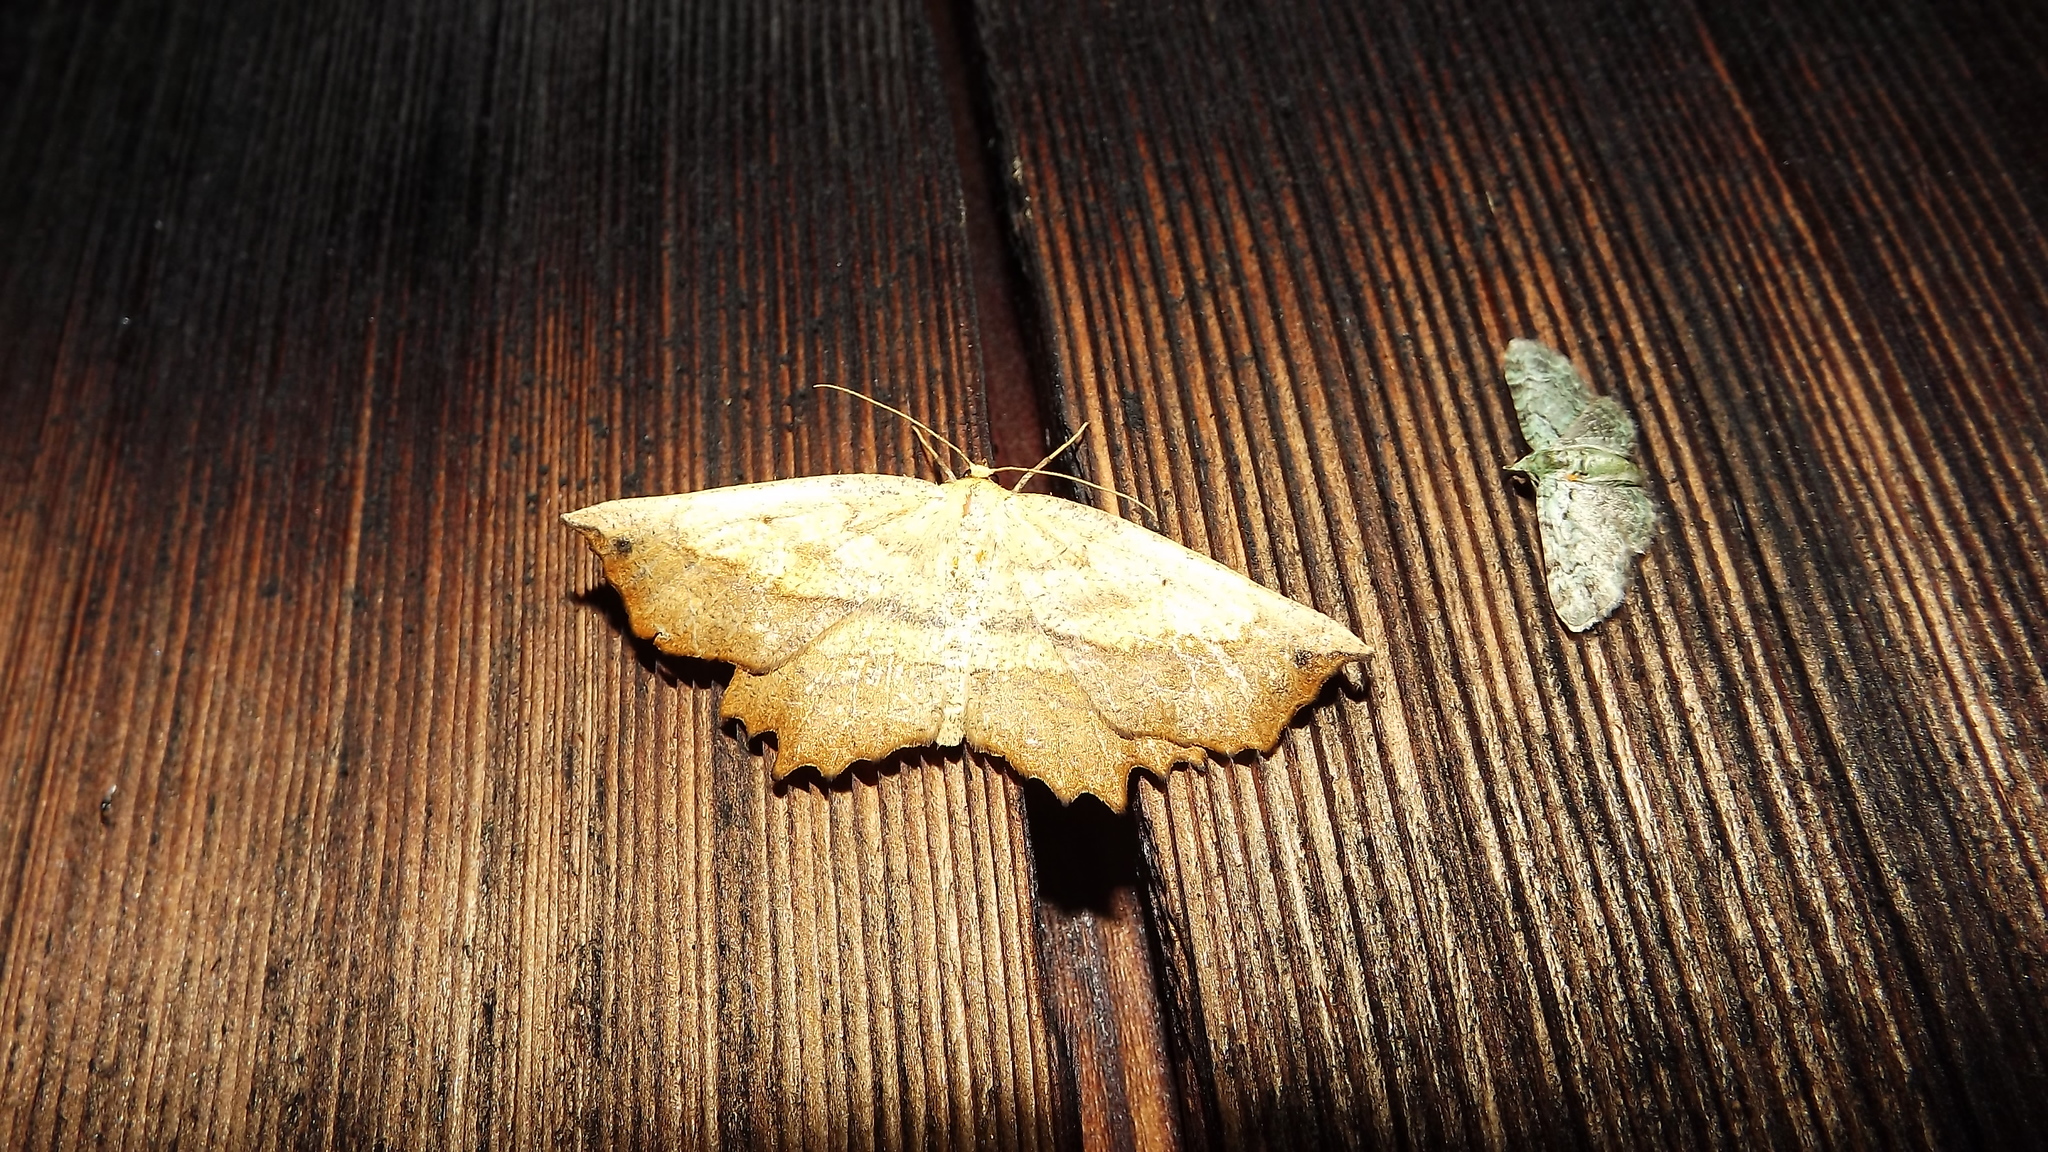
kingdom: Animalia
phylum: Arthropoda
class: Insecta
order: Lepidoptera
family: Geometridae
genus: Euchlaena
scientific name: Euchlaena muzaria
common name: Muzaria euchlaena
